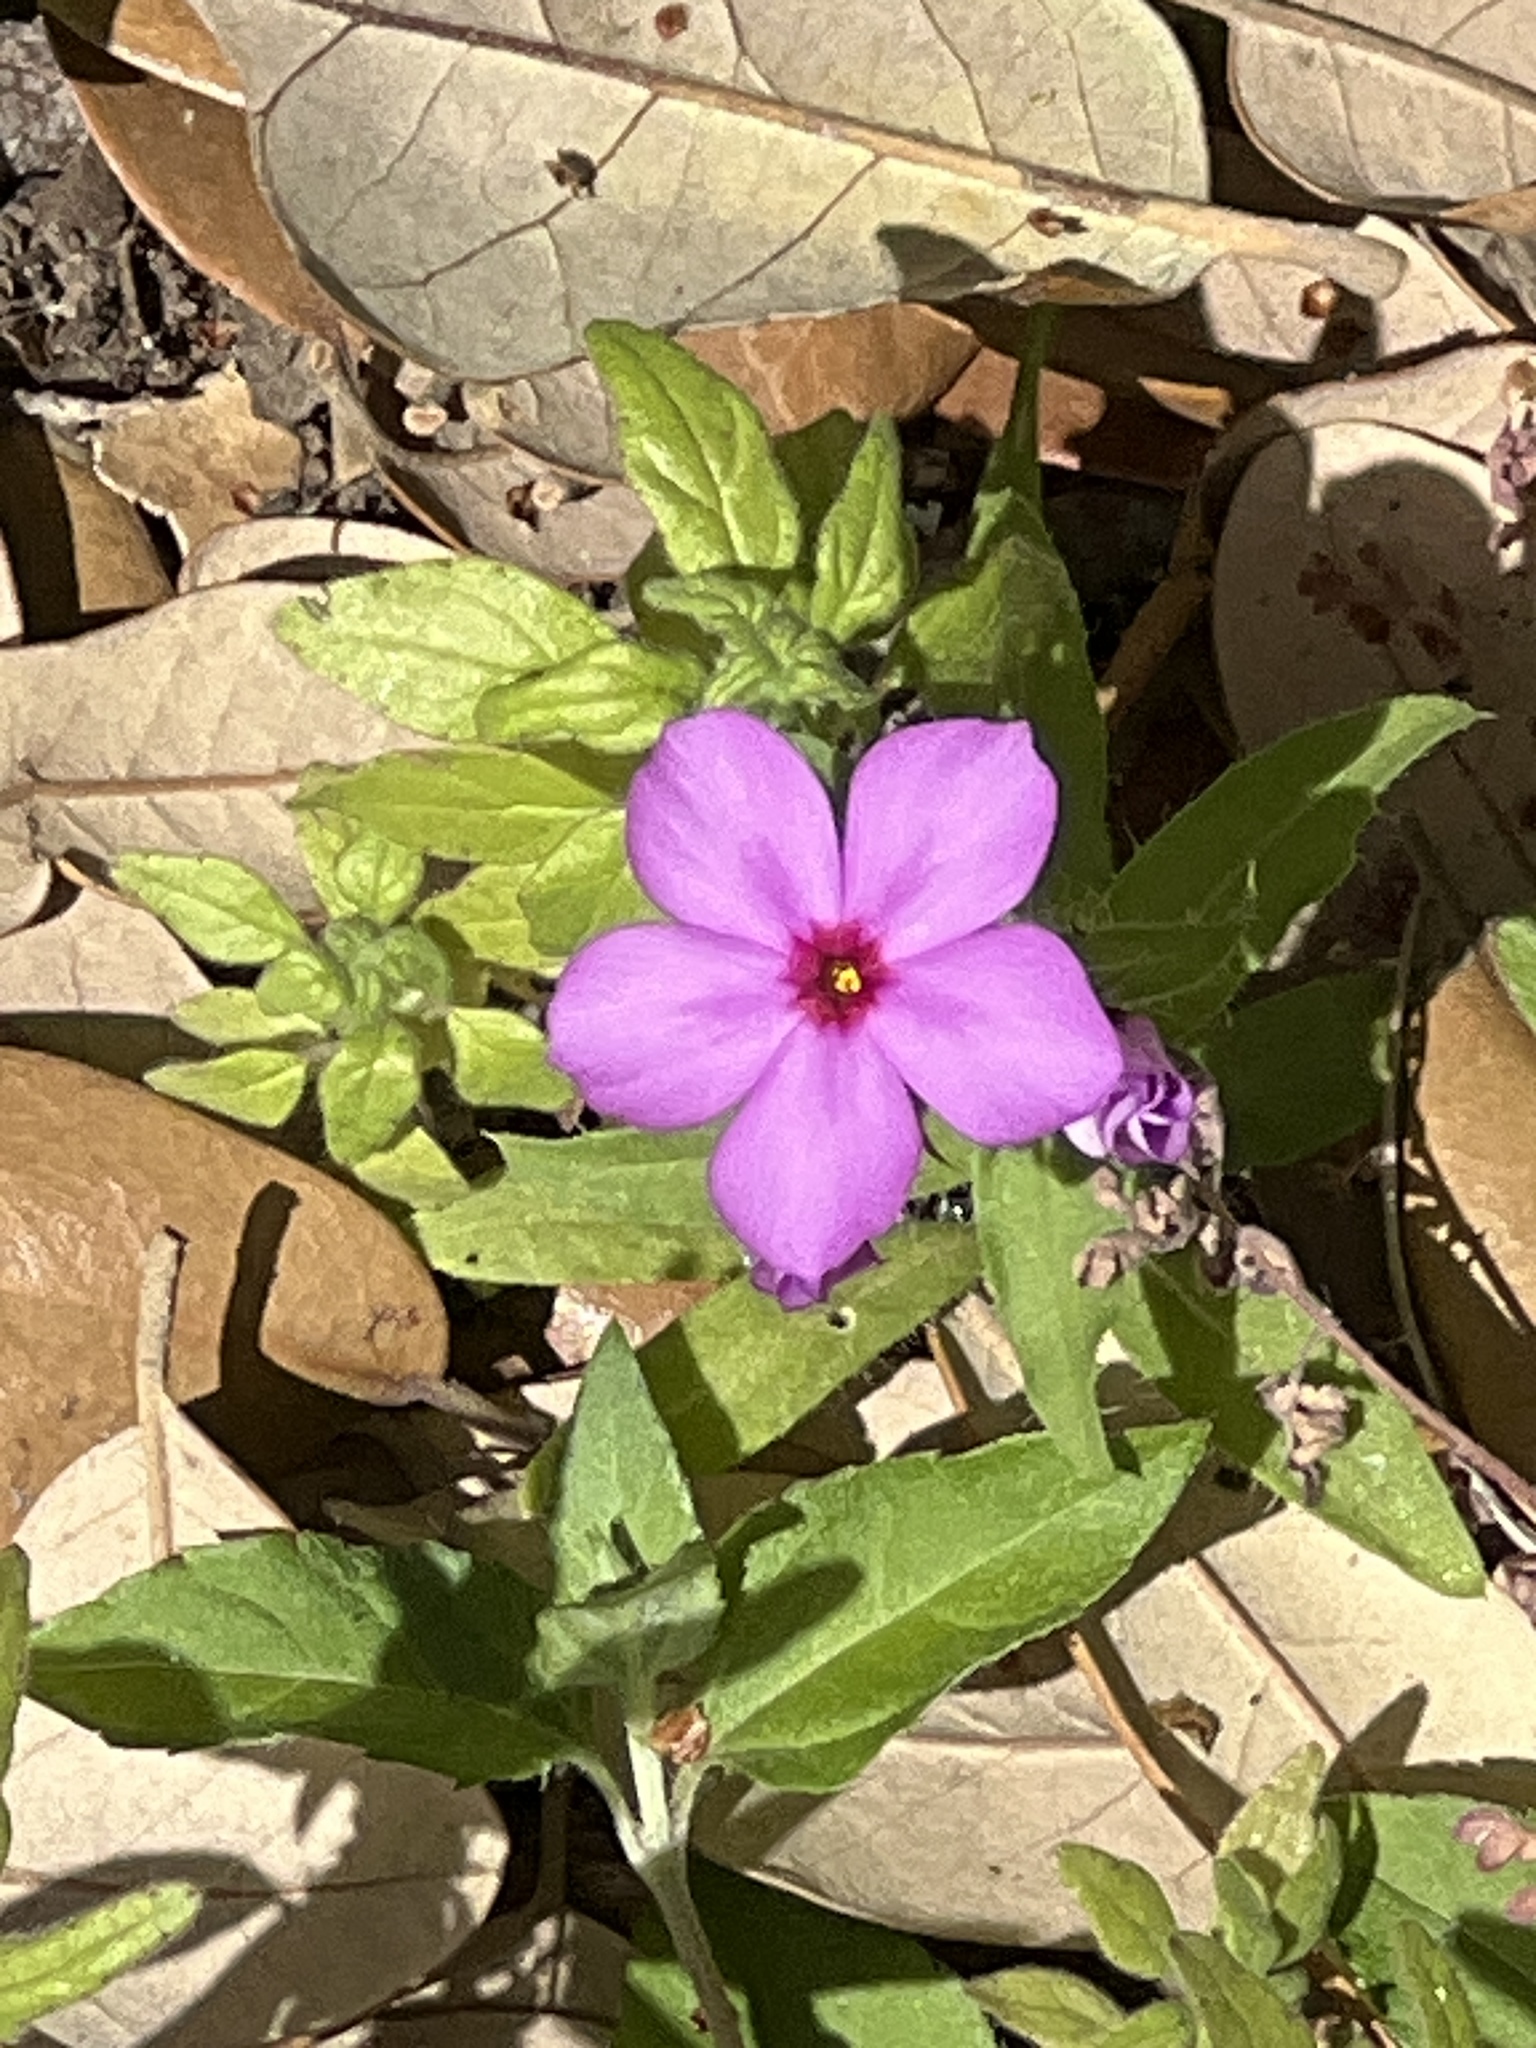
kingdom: Plantae
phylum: Tracheophyta
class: Magnoliopsida
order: Ericales
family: Polemoniaceae
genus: Phlox
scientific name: Phlox drummondii
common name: Drummond's phlox
